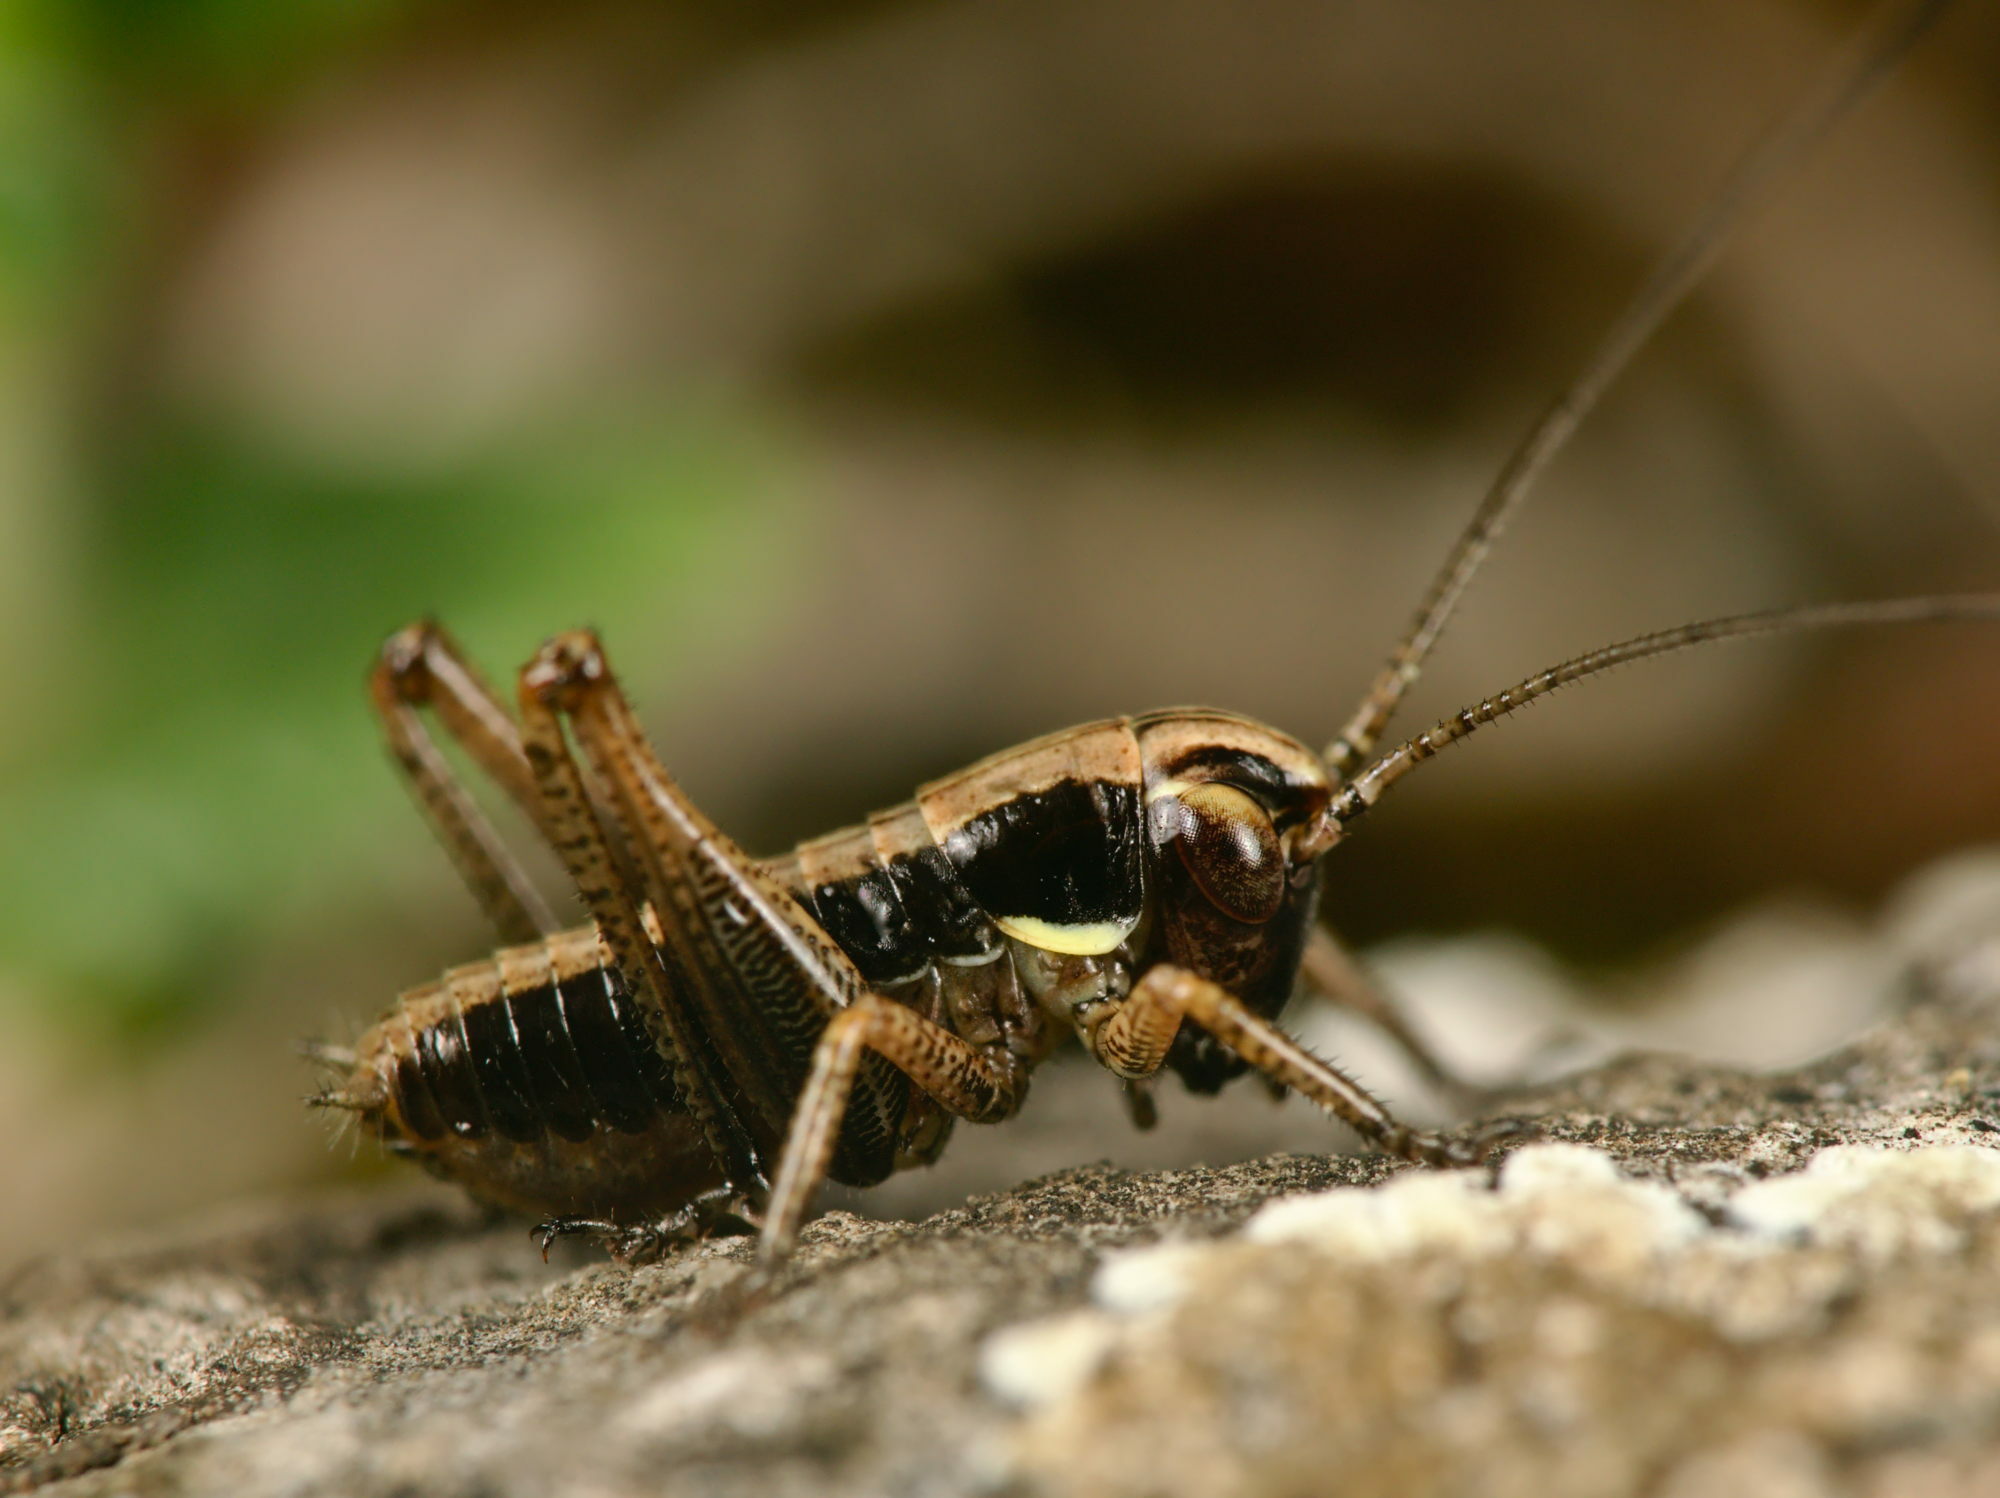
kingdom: Animalia
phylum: Arthropoda
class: Insecta
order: Orthoptera
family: Tettigoniidae
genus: Platycleis
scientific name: Platycleis albopunctata
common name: Grey bush-cricket
